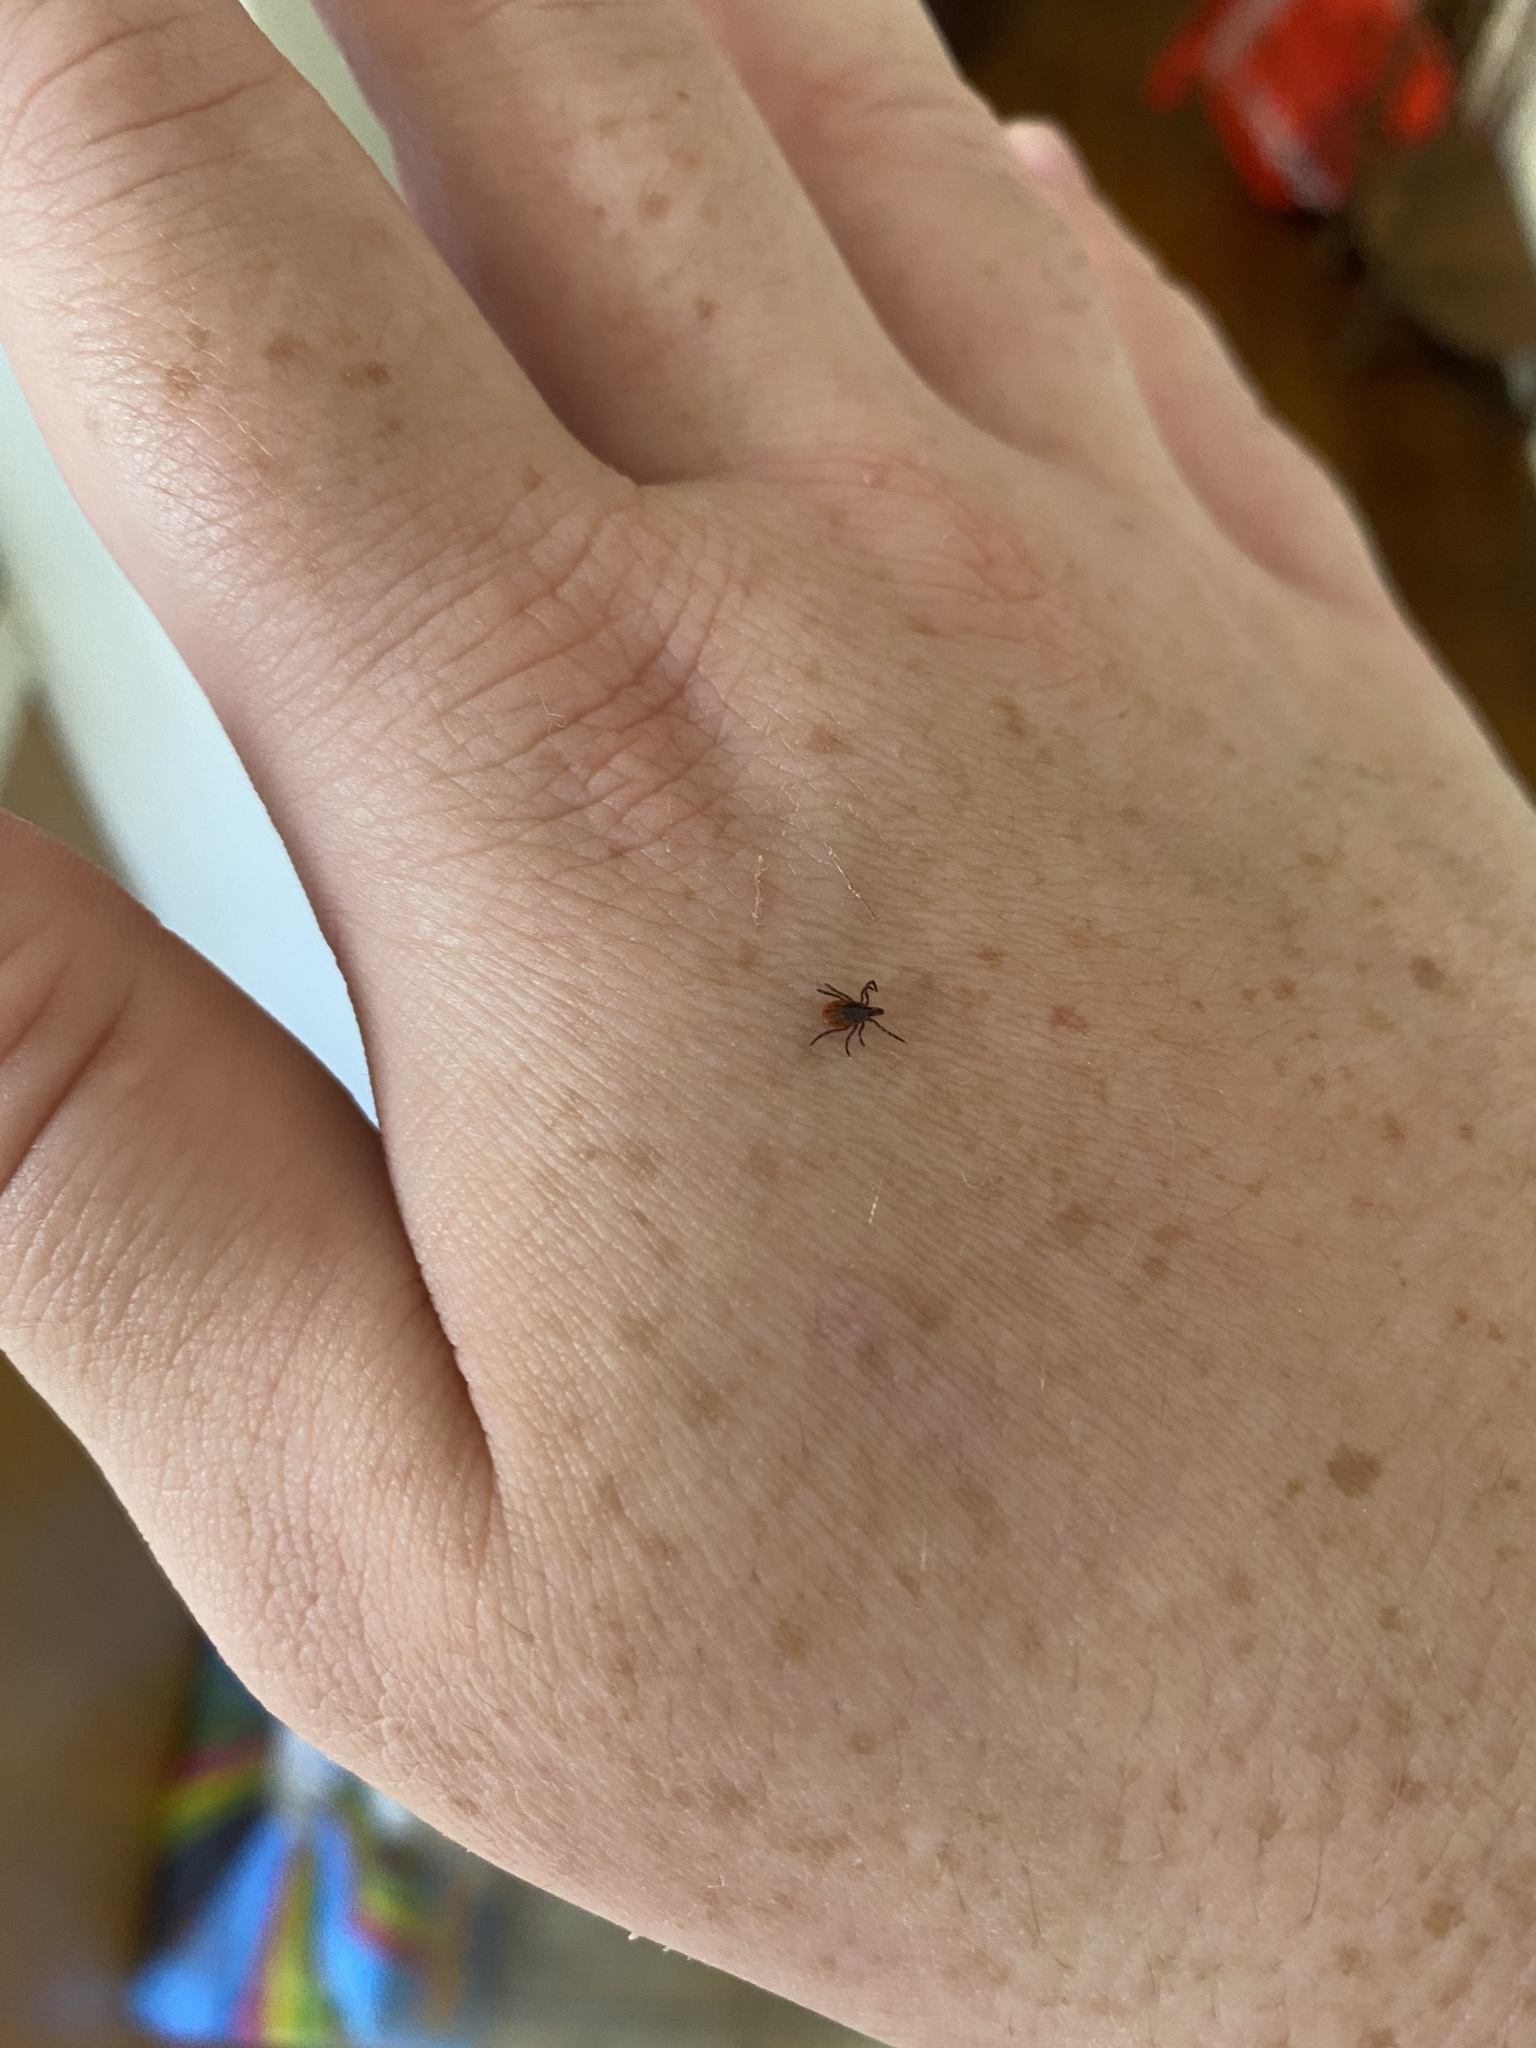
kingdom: Animalia
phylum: Arthropoda
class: Arachnida
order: Ixodida
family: Ixodidae
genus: Ixodes
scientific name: Ixodes scapularis
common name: Black legged tick
